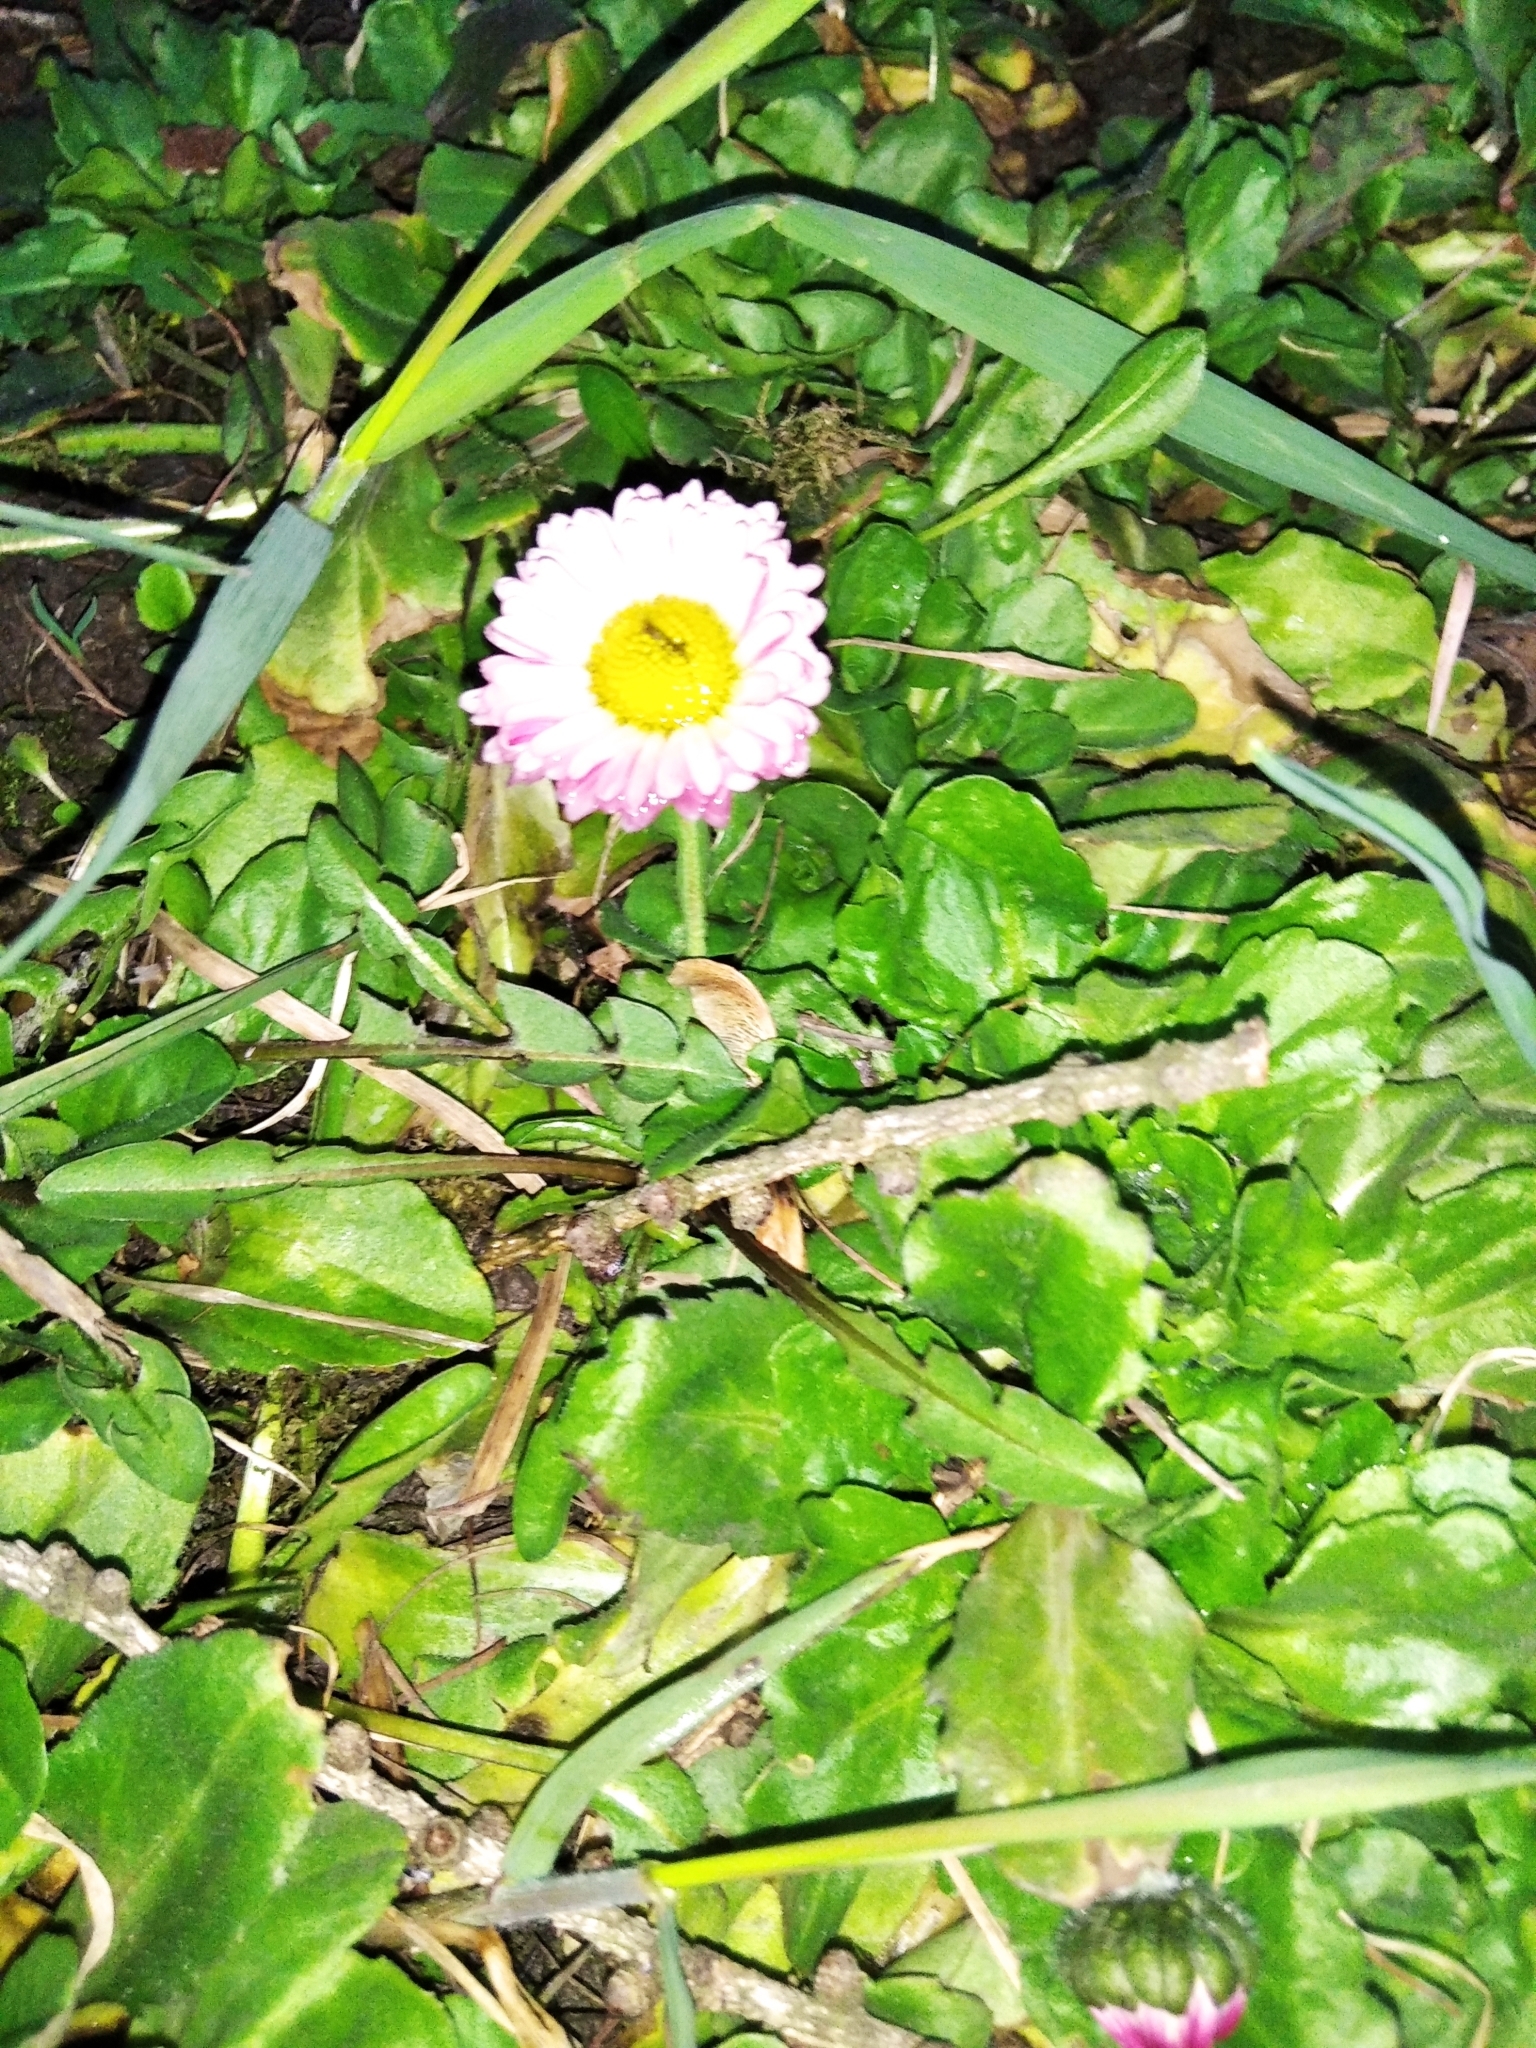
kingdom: Plantae
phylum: Tracheophyta
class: Magnoliopsida
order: Asterales
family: Asteraceae
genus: Bellis
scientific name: Bellis perennis
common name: Lawndaisy
